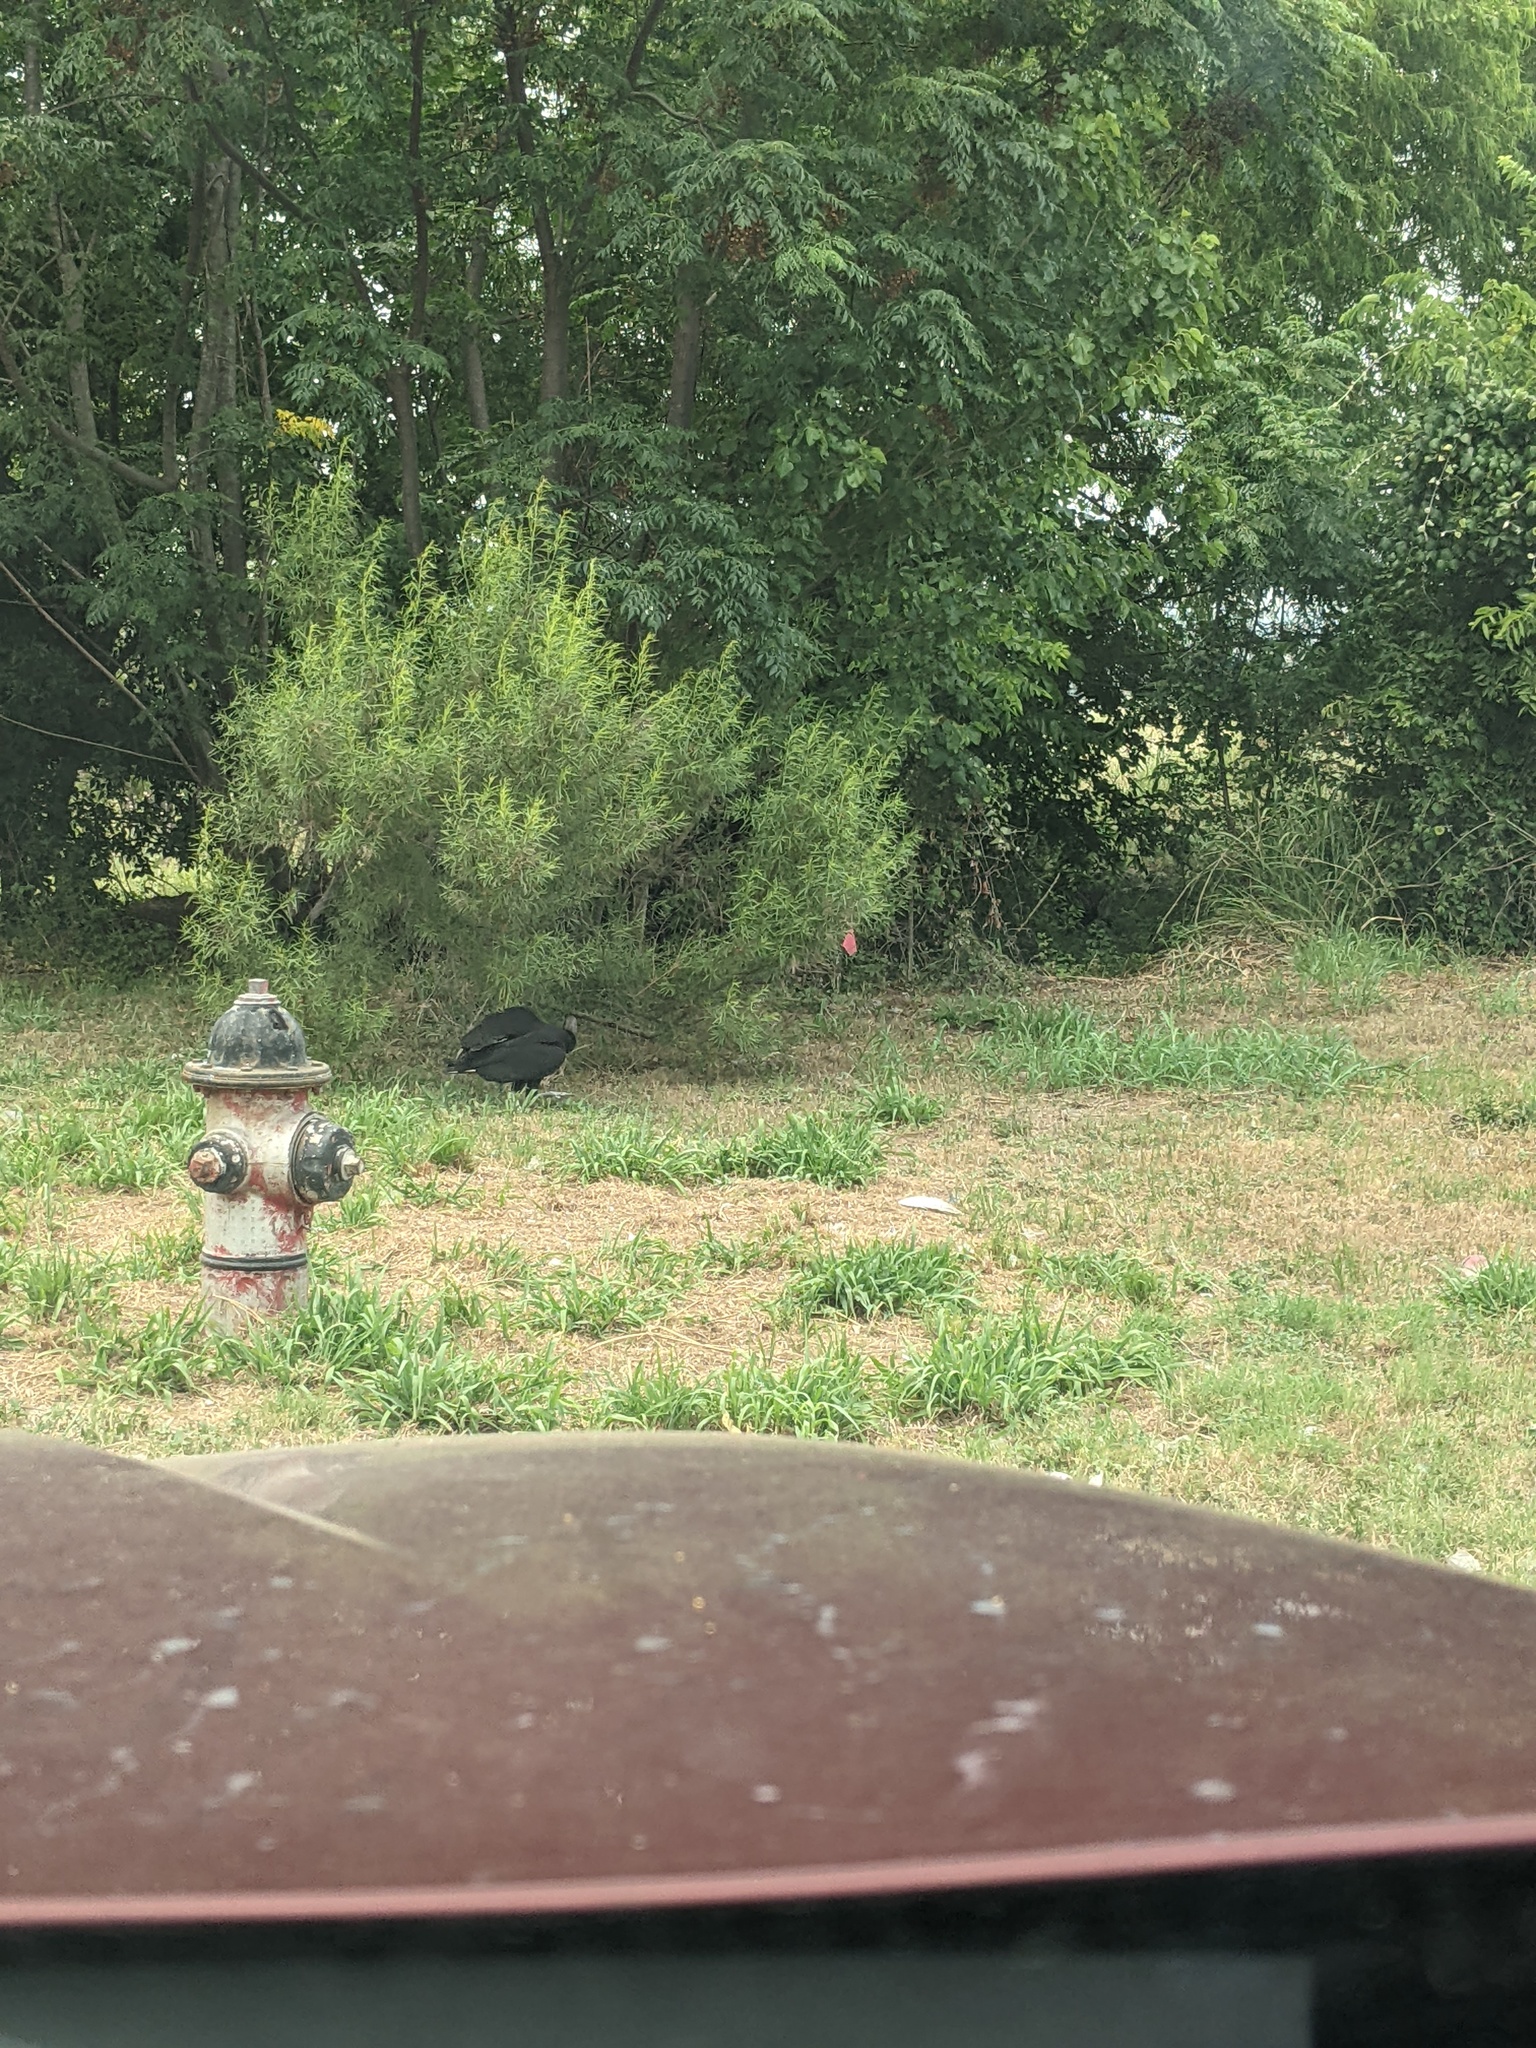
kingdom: Animalia
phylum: Chordata
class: Aves
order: Accipitriformes
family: Cathartidae
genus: Coragyps
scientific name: Coragyps atratus
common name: Black vulture
